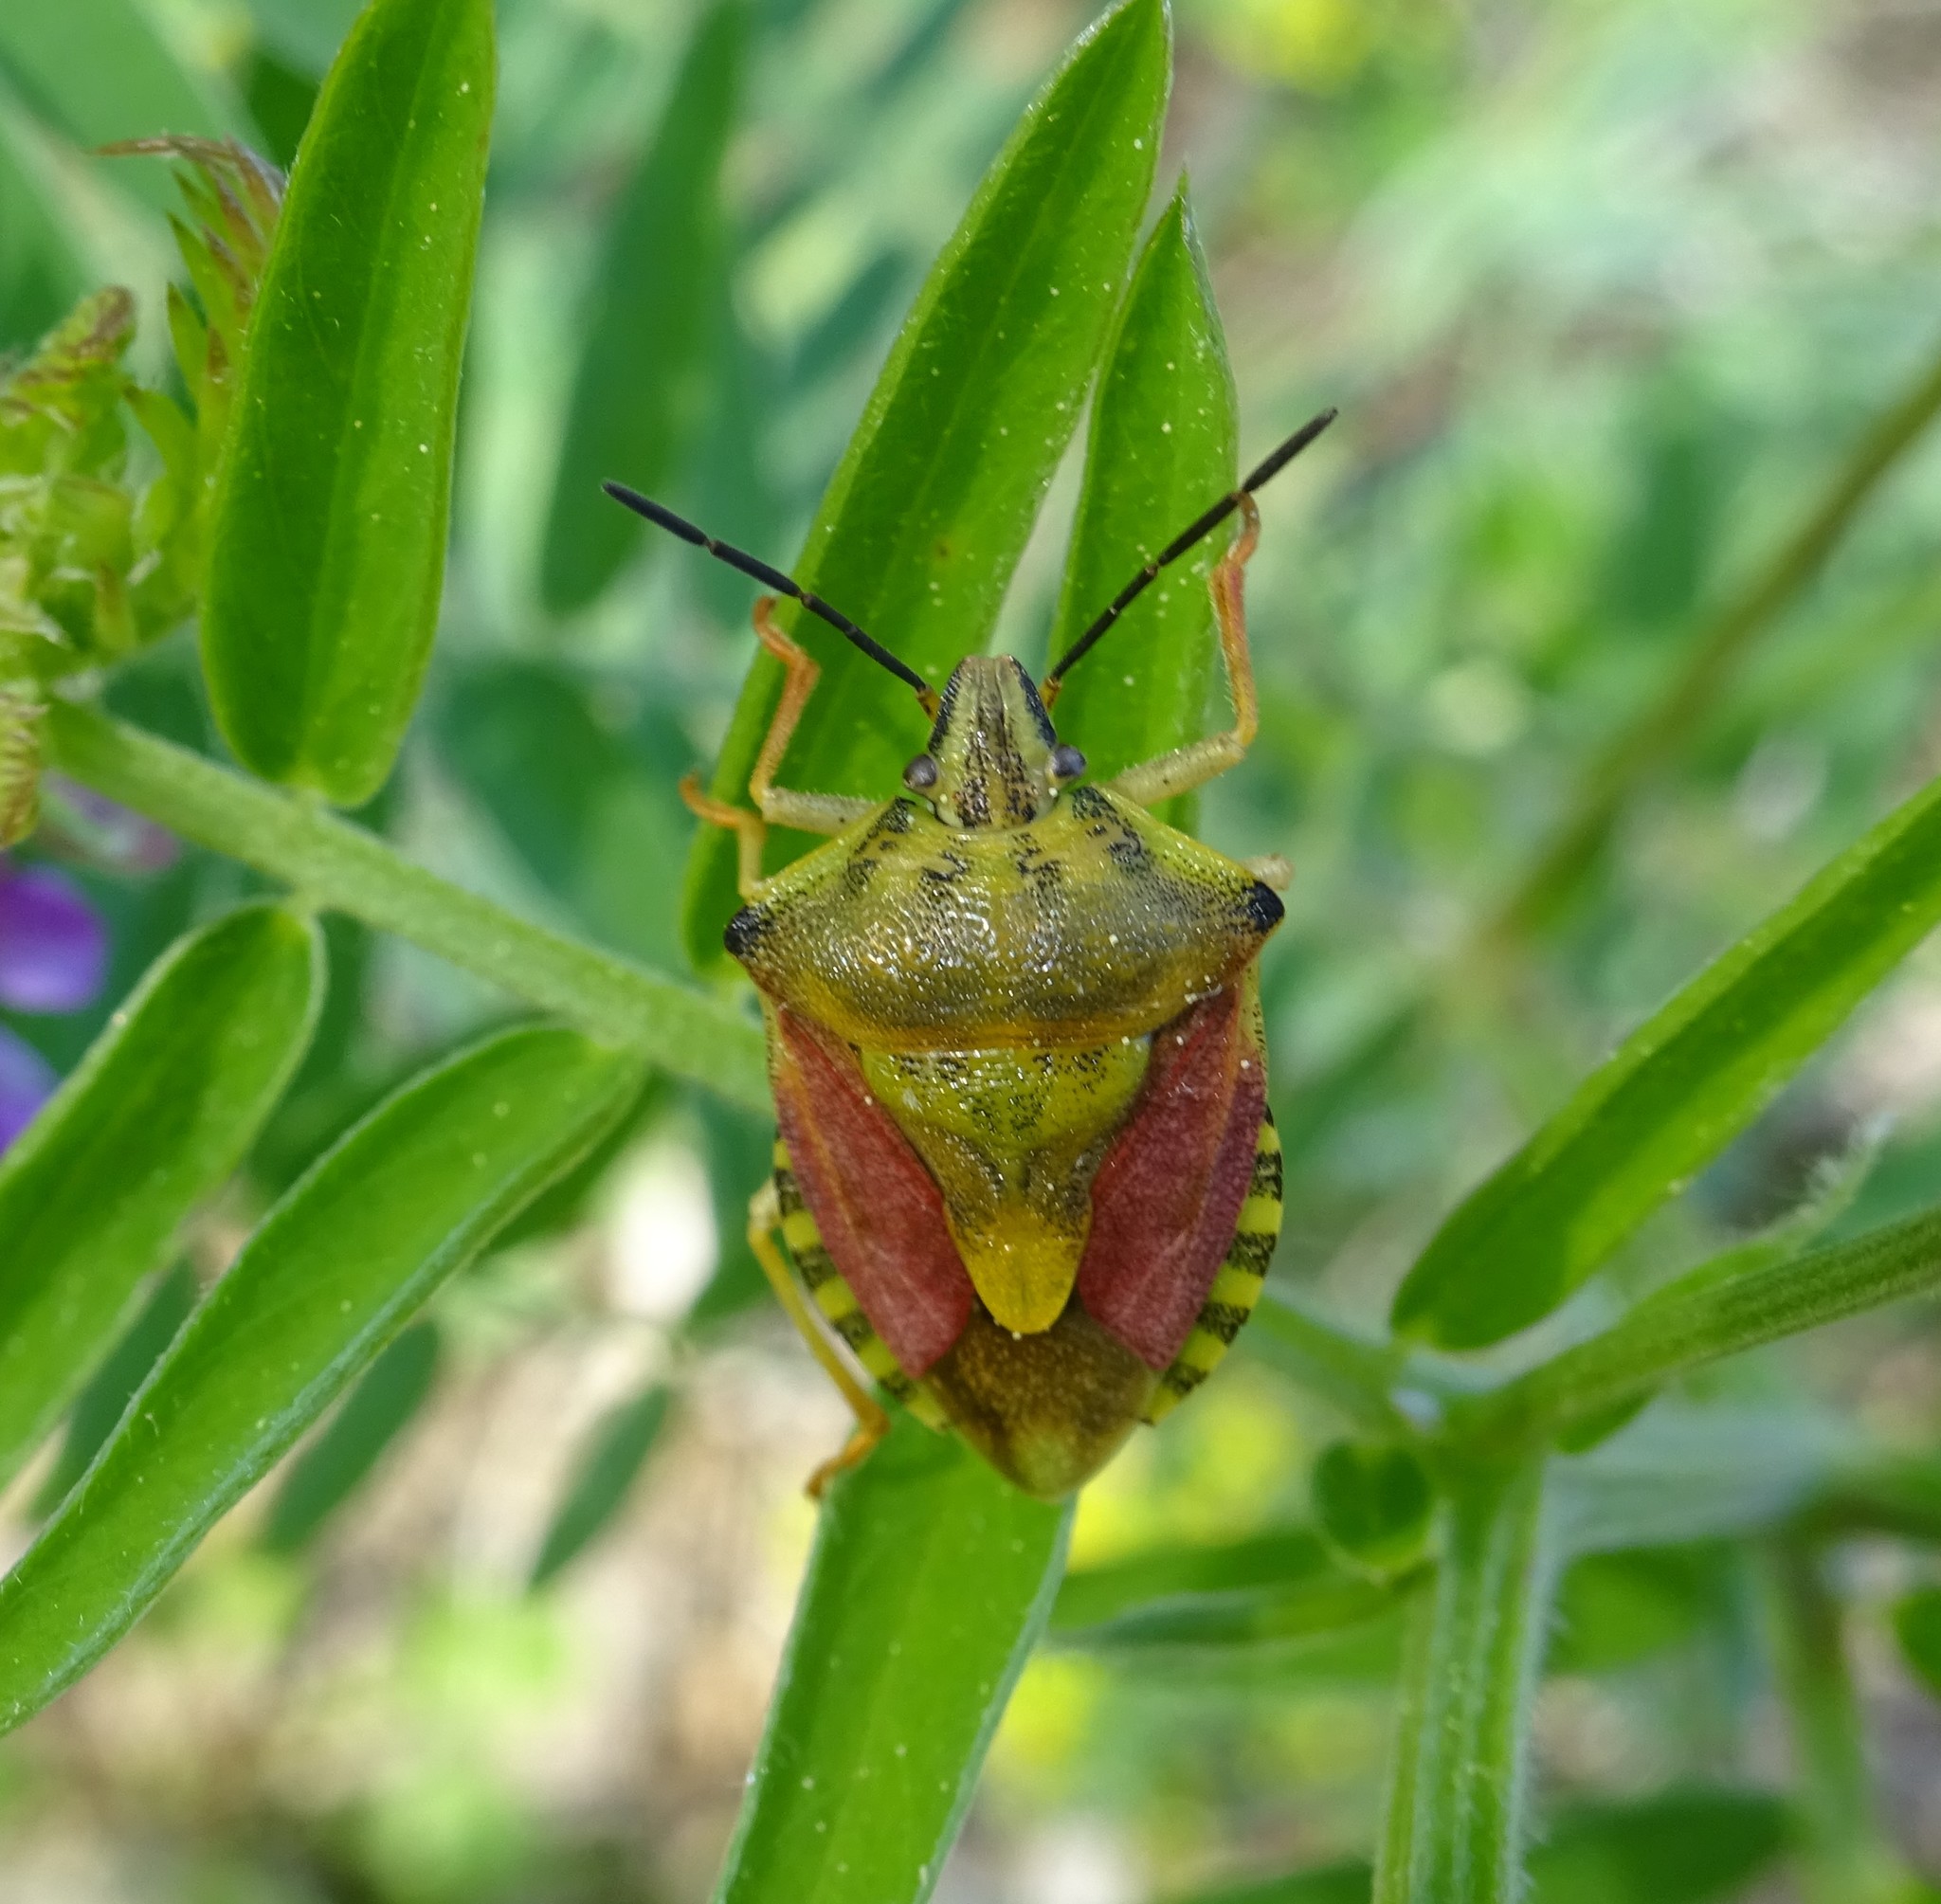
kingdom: Animalia
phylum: Arthropoda
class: Insecta
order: Hemiptera
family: Pentatomidae
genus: Carpocoris
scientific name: Carpocoris purpureipennis
